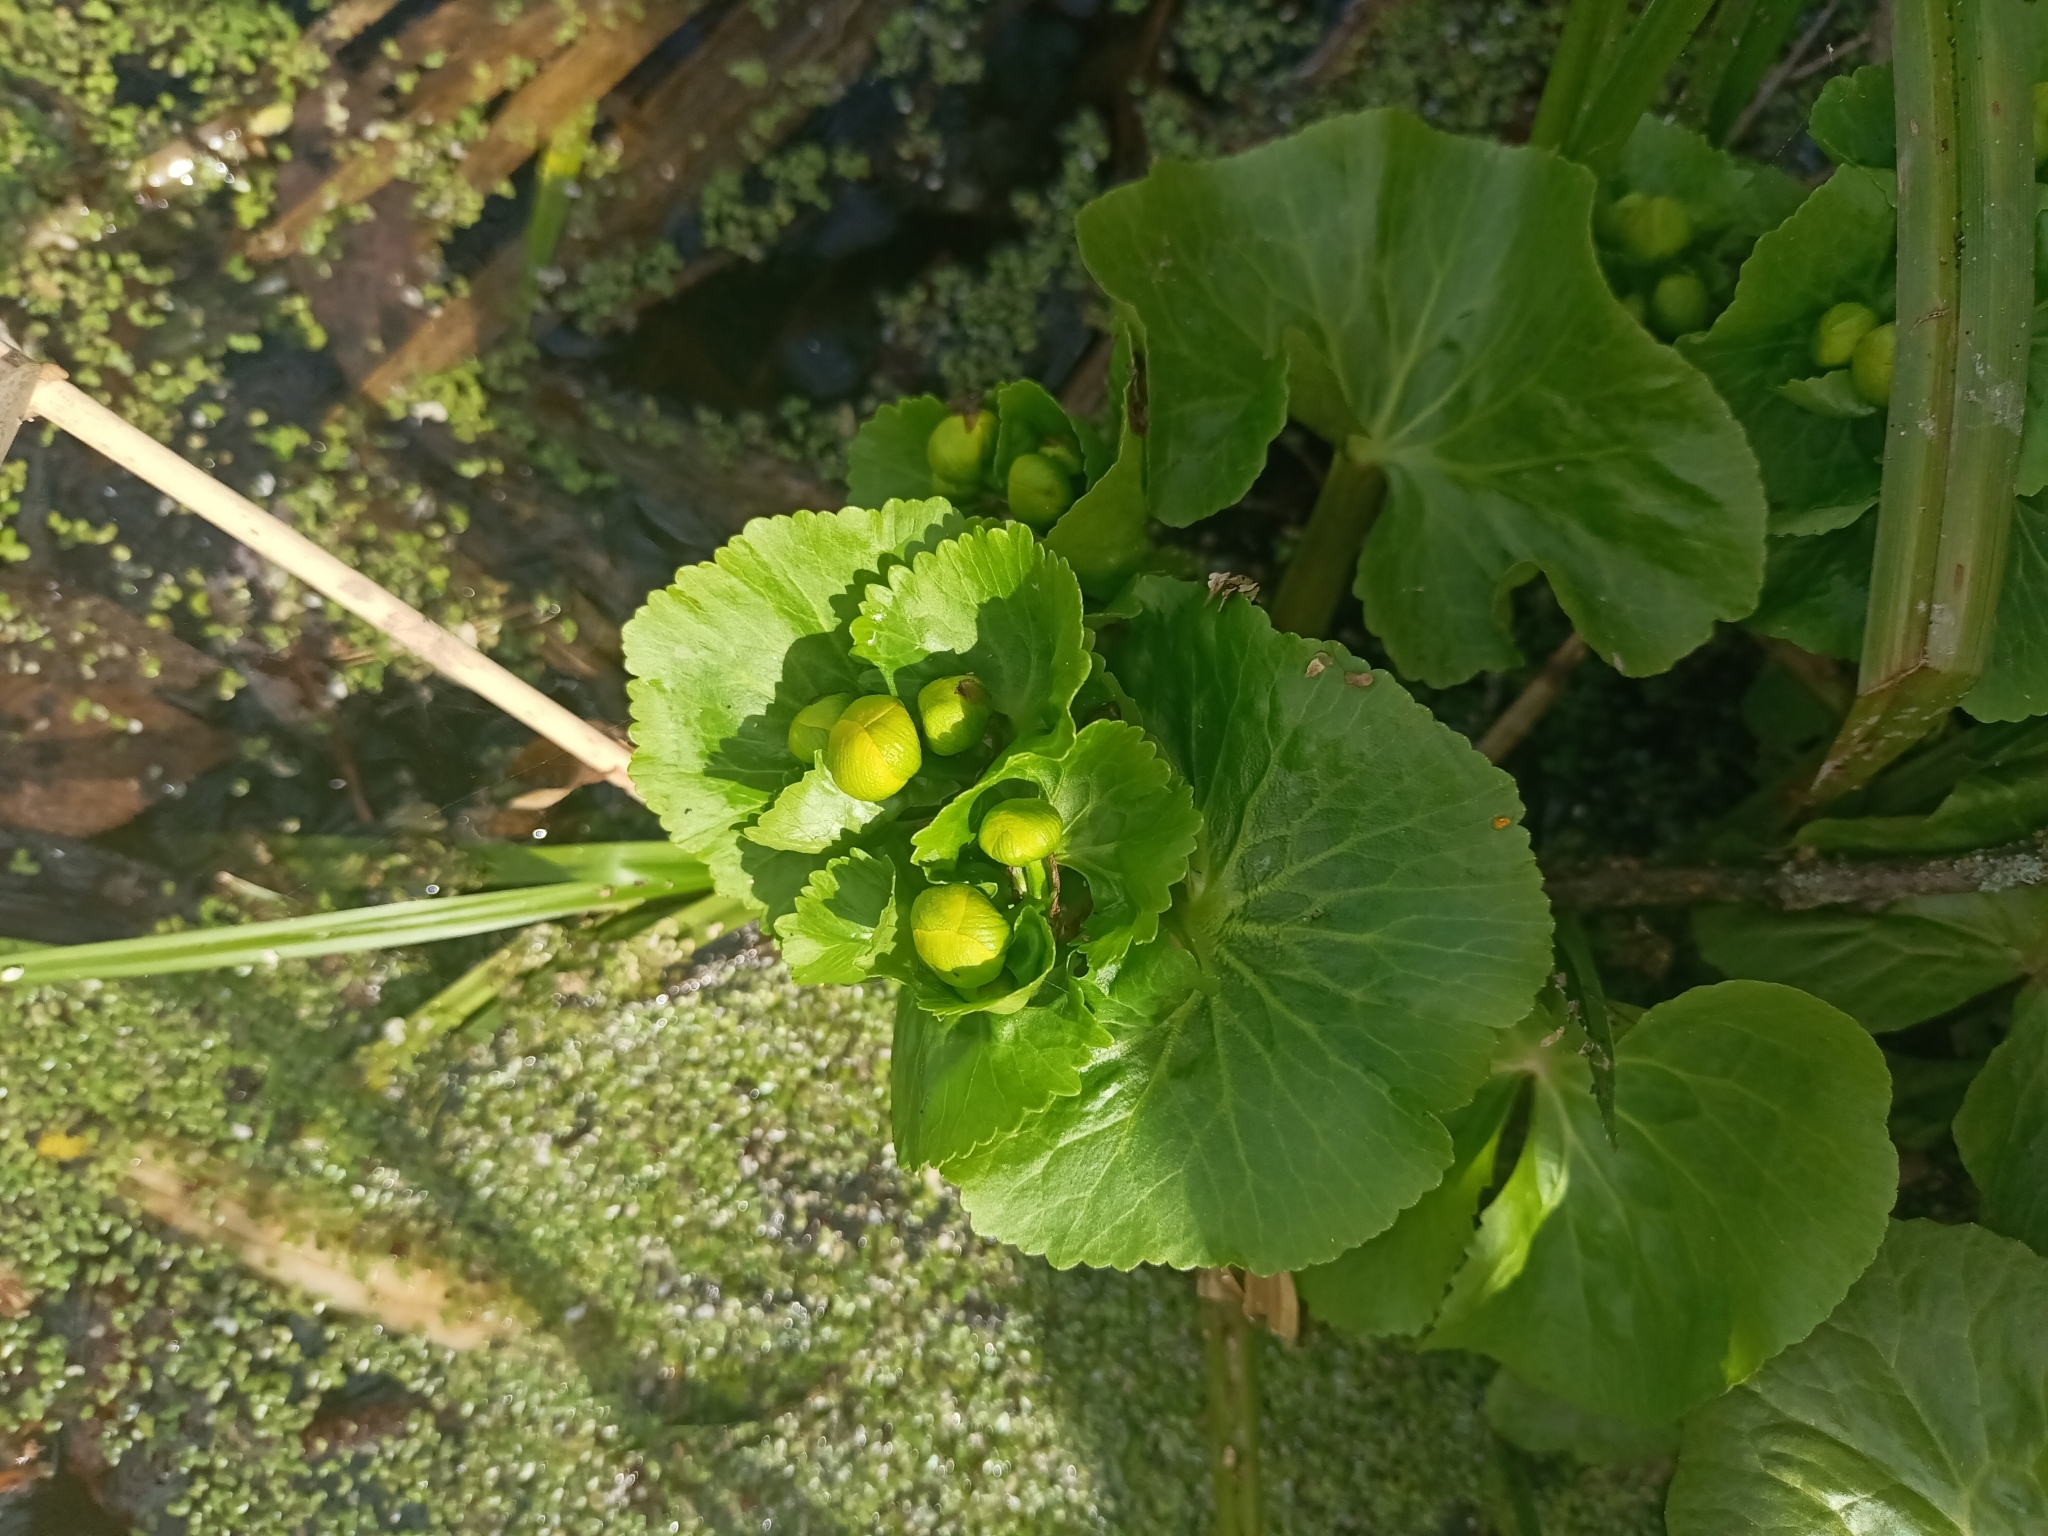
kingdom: Plantae
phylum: Tracheophyta
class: Magnoliopsida
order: Ranunculales
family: Ranunculaceae
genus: Caltha
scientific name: Caltha palustris
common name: Marsh marigold
